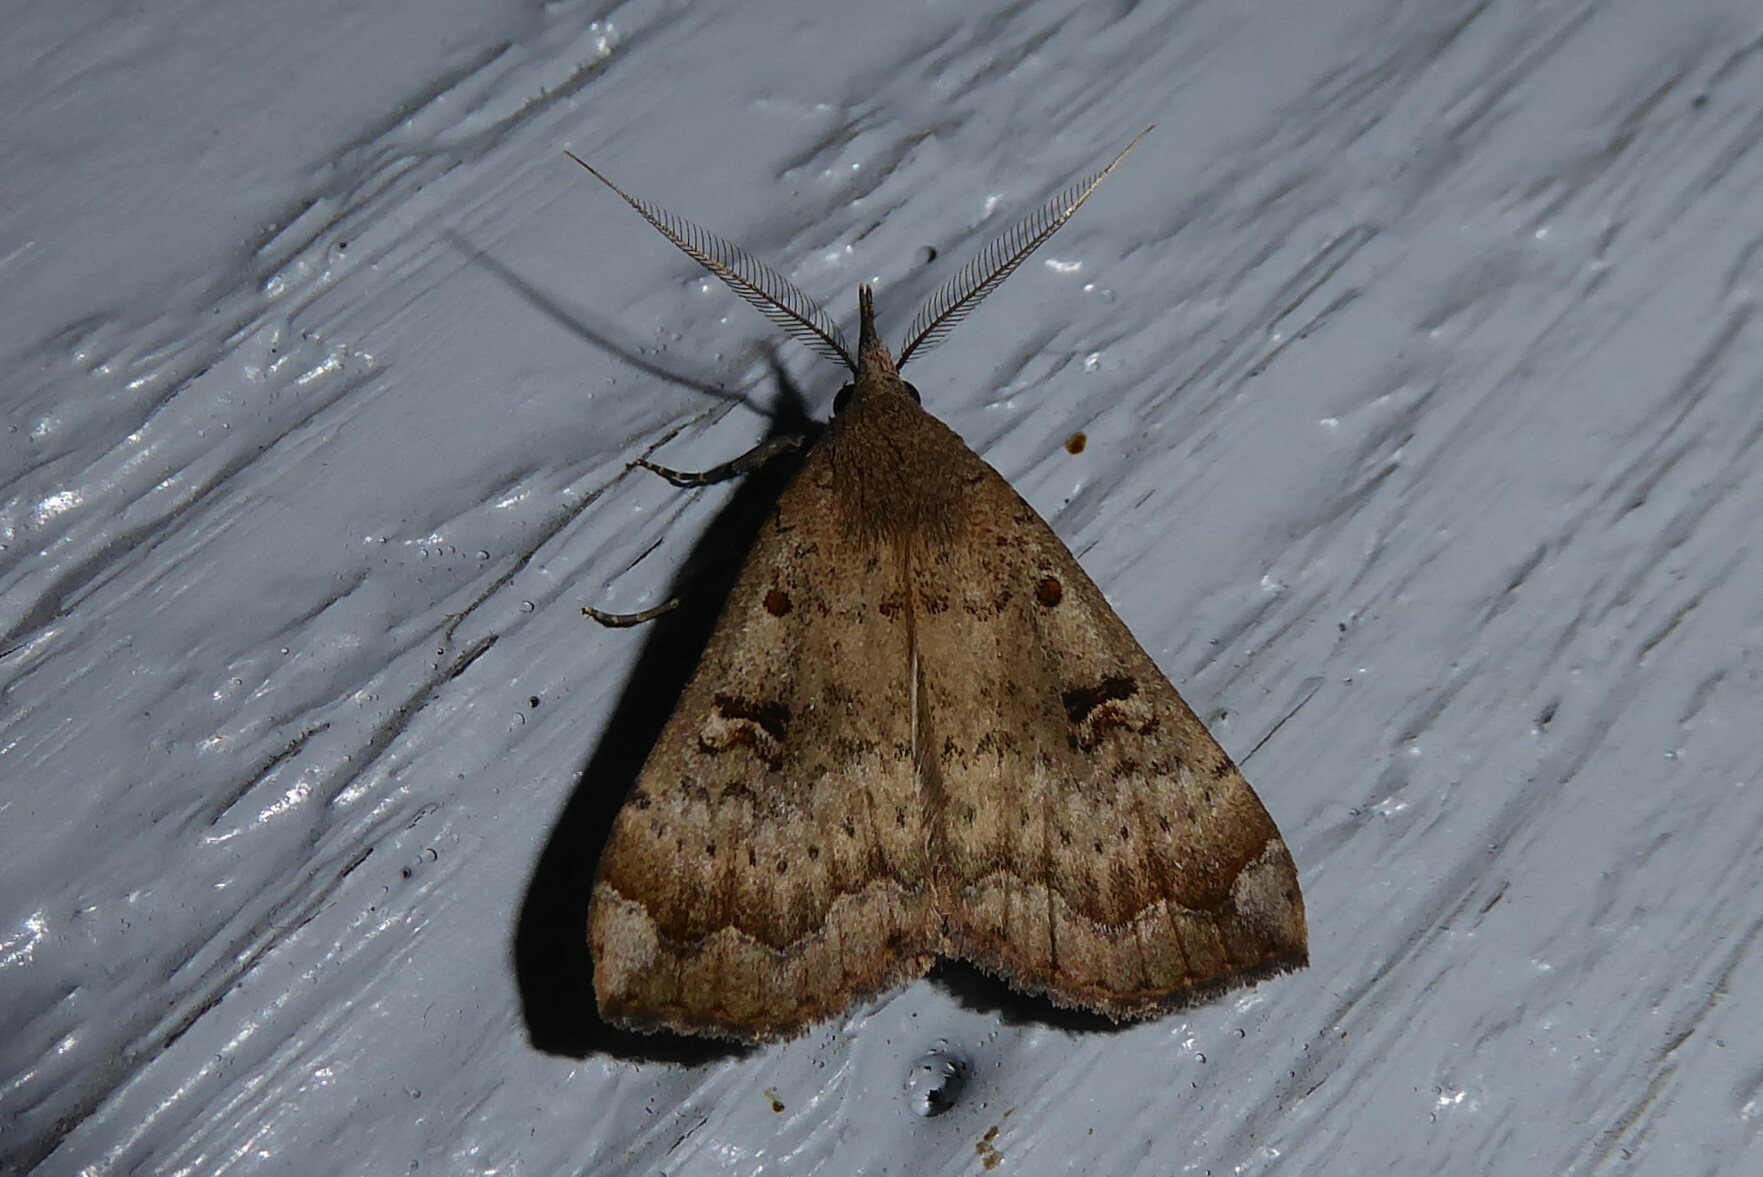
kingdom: Animalia
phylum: Arthropoda
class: Insecta
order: Lepidoptera
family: Erebidae
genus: Rhapsa
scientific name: Rhapsa scotosialis
